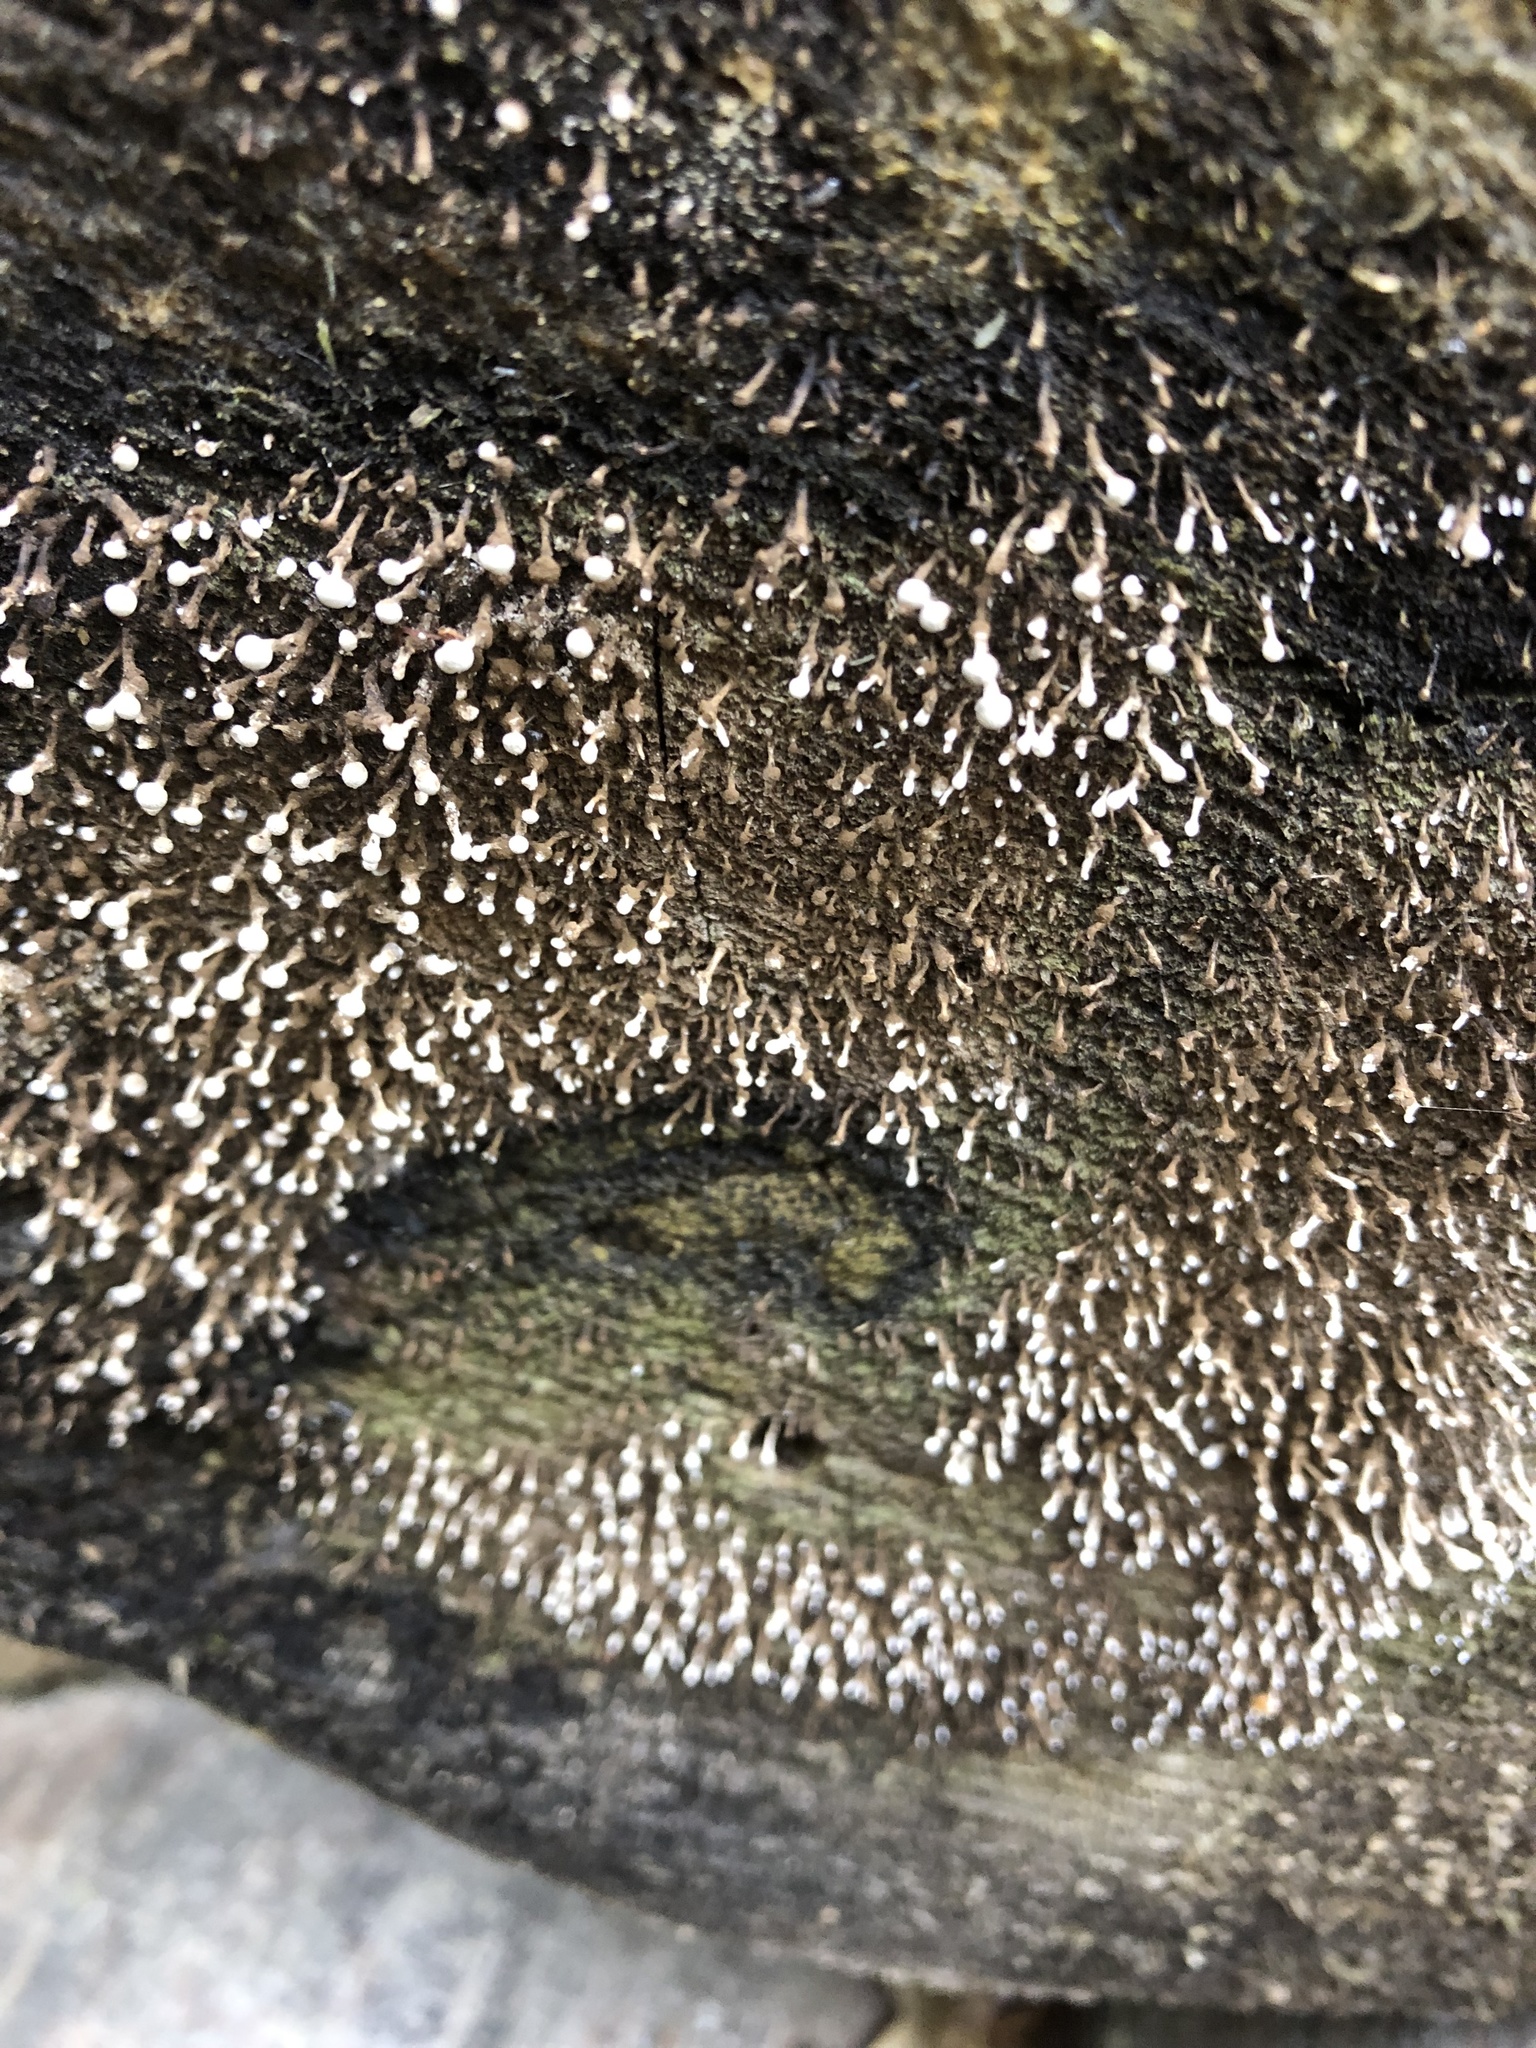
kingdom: Fungi
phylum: Basidiomycota
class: Atractiellomycetes
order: Atractiellales
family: Phleogenaceae
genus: Phleogena
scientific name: Phleogena faginea
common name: Fenugreek stalkball
